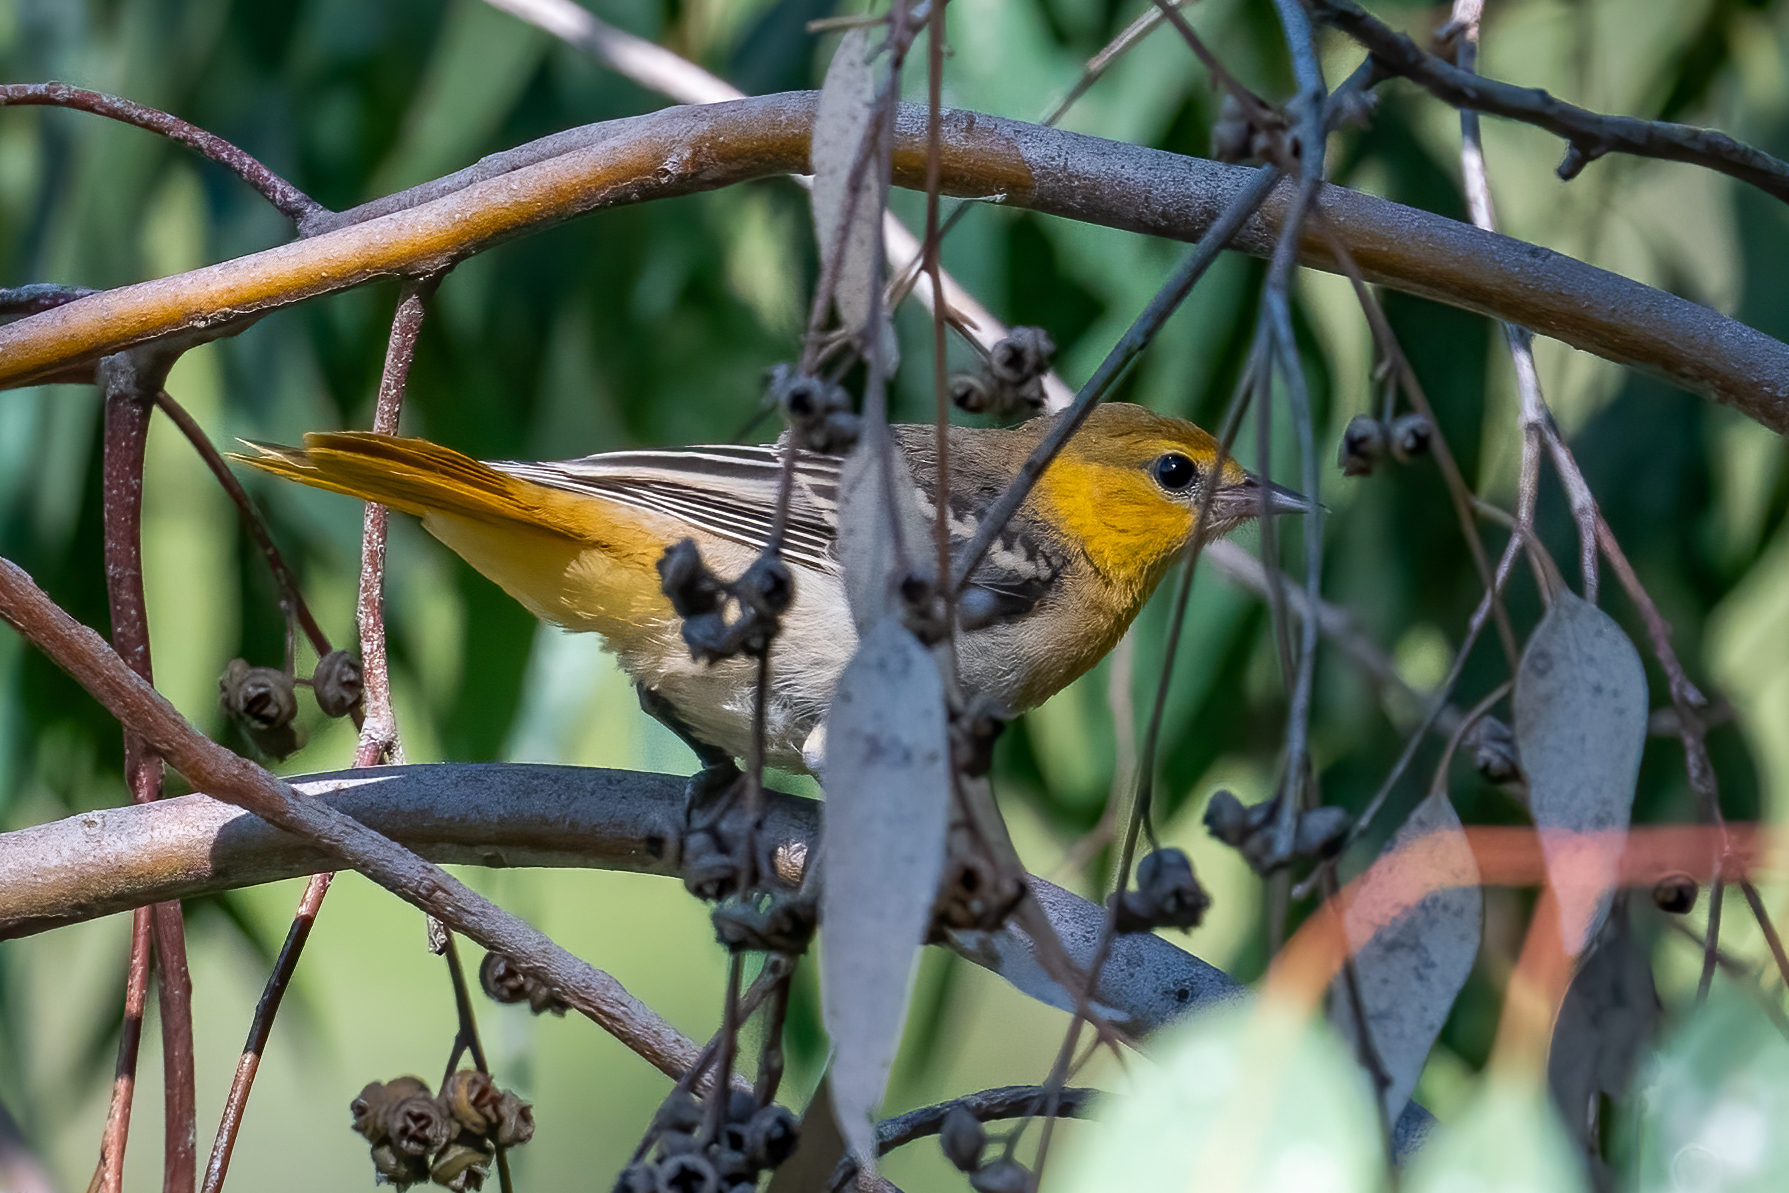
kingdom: Animalia
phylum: Chordata
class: Aves
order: Passeriformes
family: Icteridae
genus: Icterus
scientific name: Icterus bullockii
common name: Bullock's oriole
